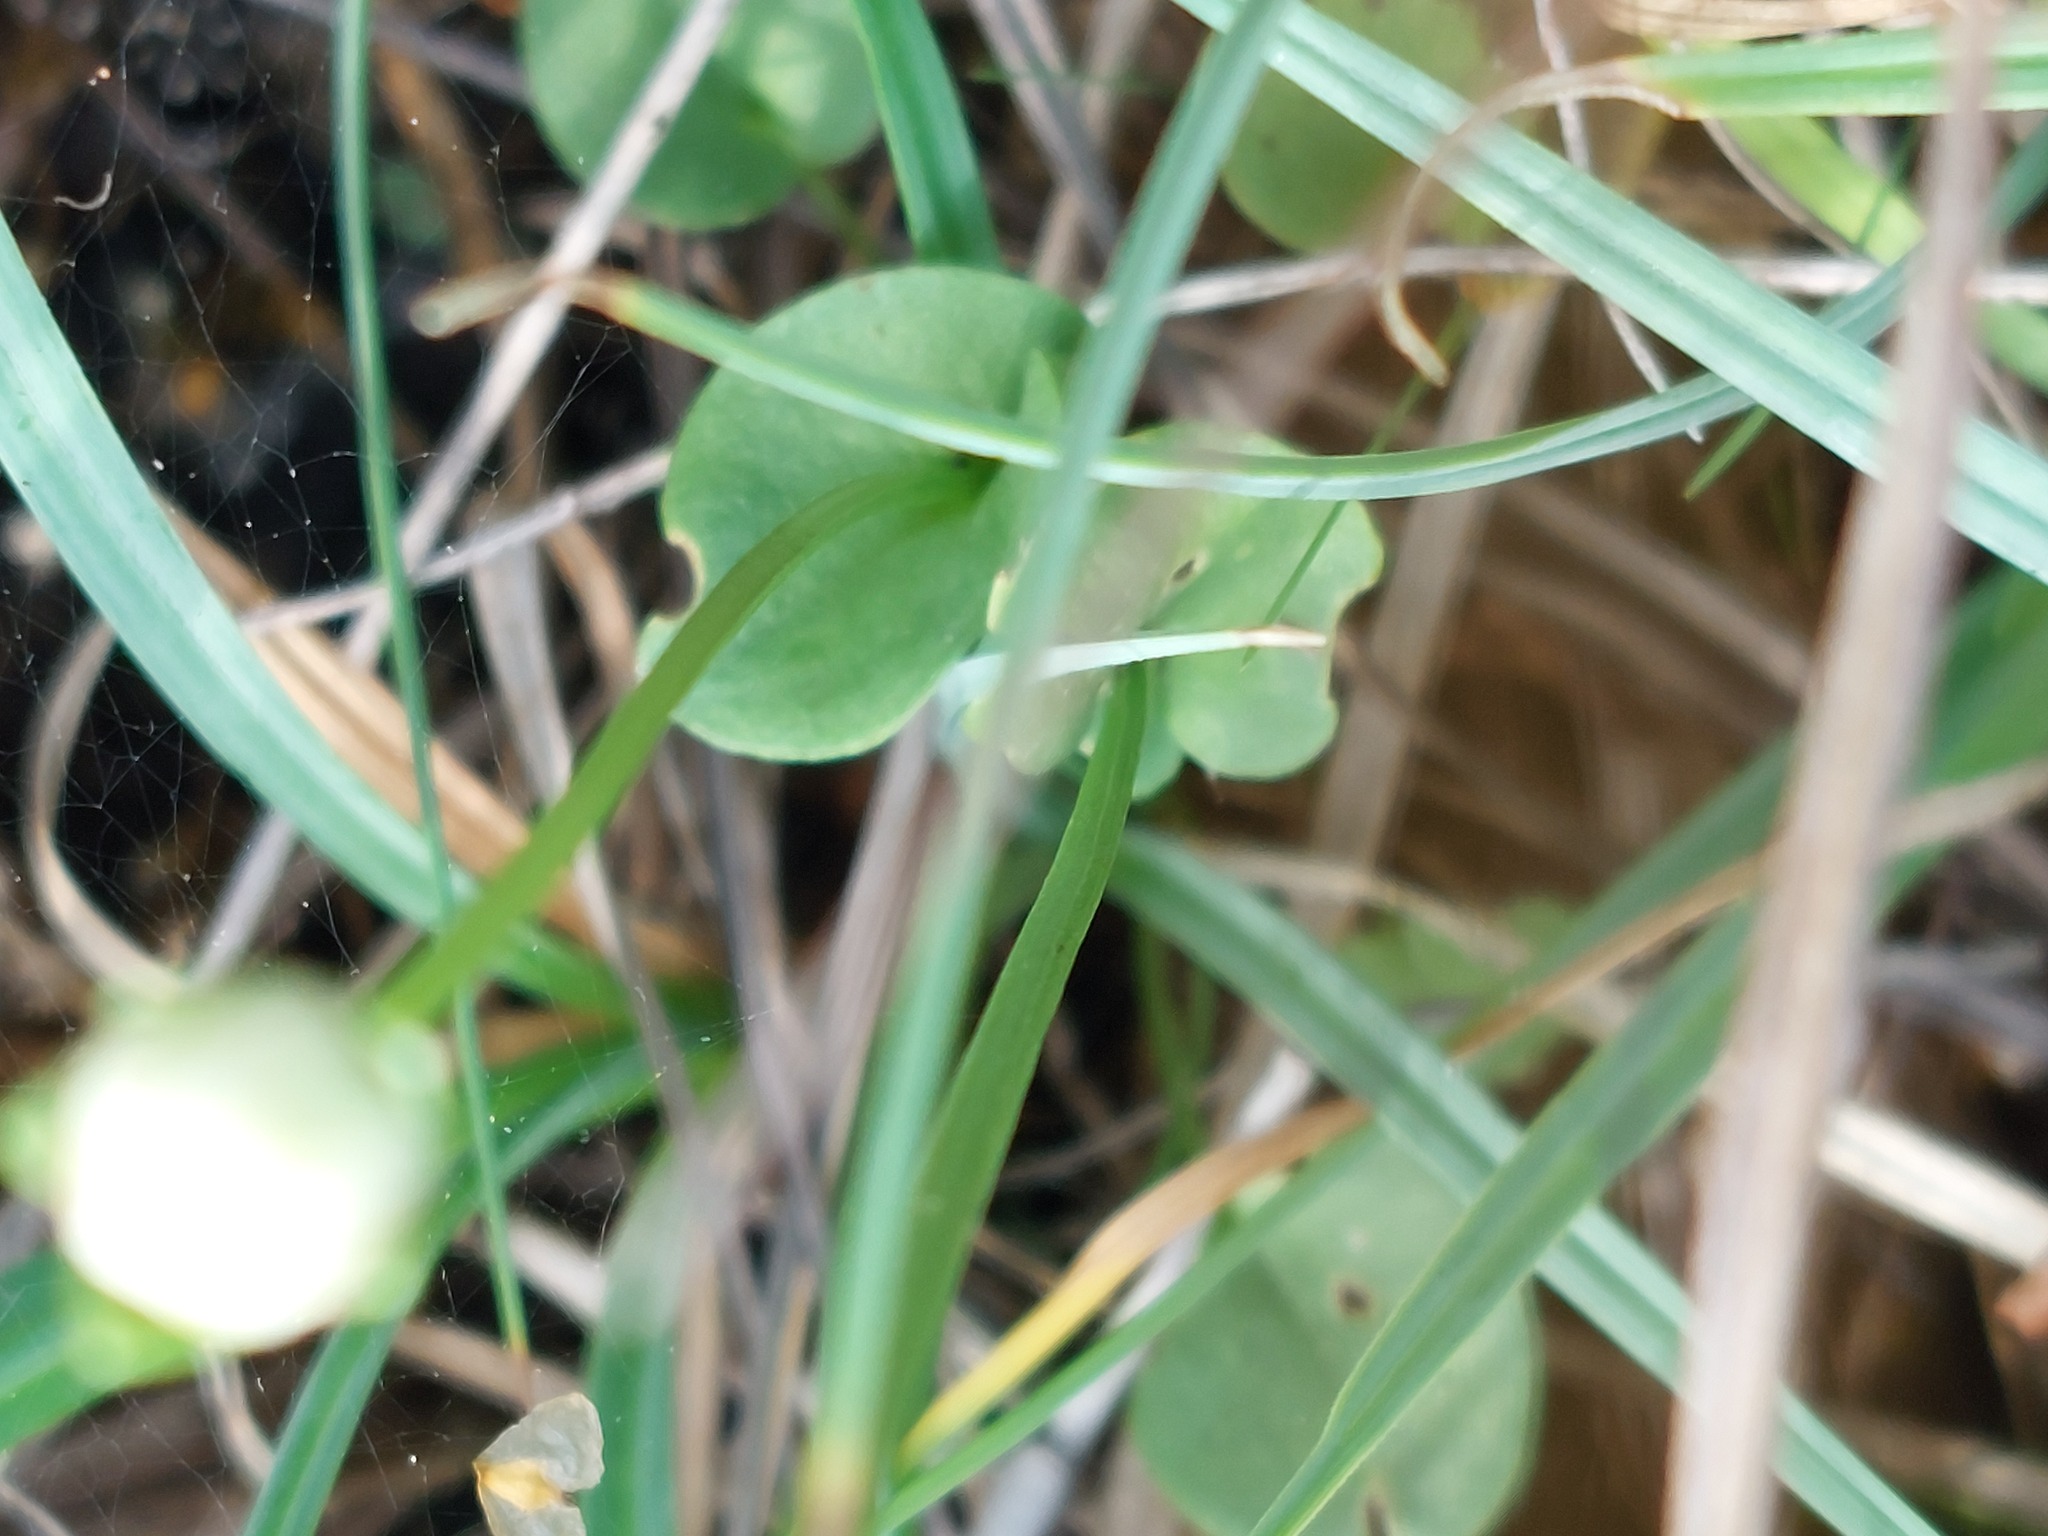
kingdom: Plantae
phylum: Tracheophyta
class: Magnoliopsida
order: Celastrales
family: Parnassiaceae
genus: Parnassia
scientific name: Parnassia palustris
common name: Grass-of-parnassus
